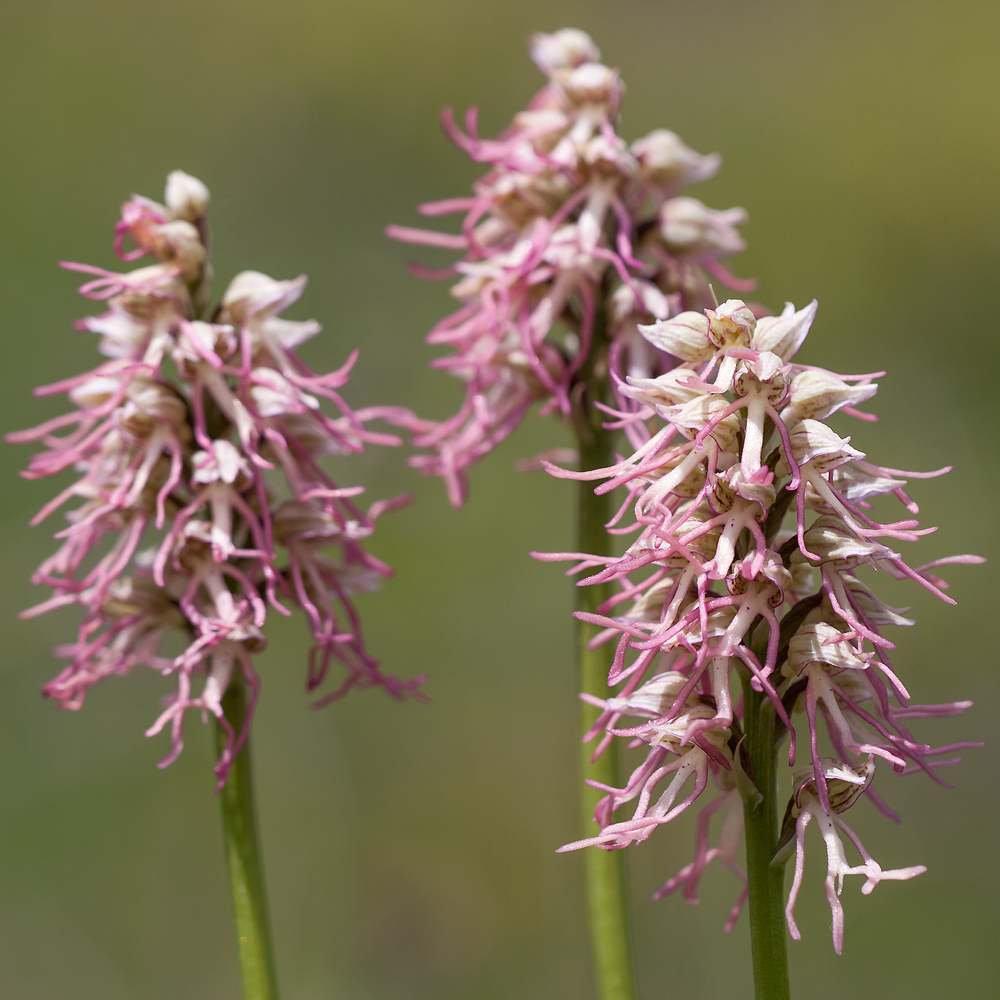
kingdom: Plantae
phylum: Tracheophyta
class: Liliopsida
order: Asparagales
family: Orchidaceae
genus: Orchis
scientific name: Orchis bergonii
